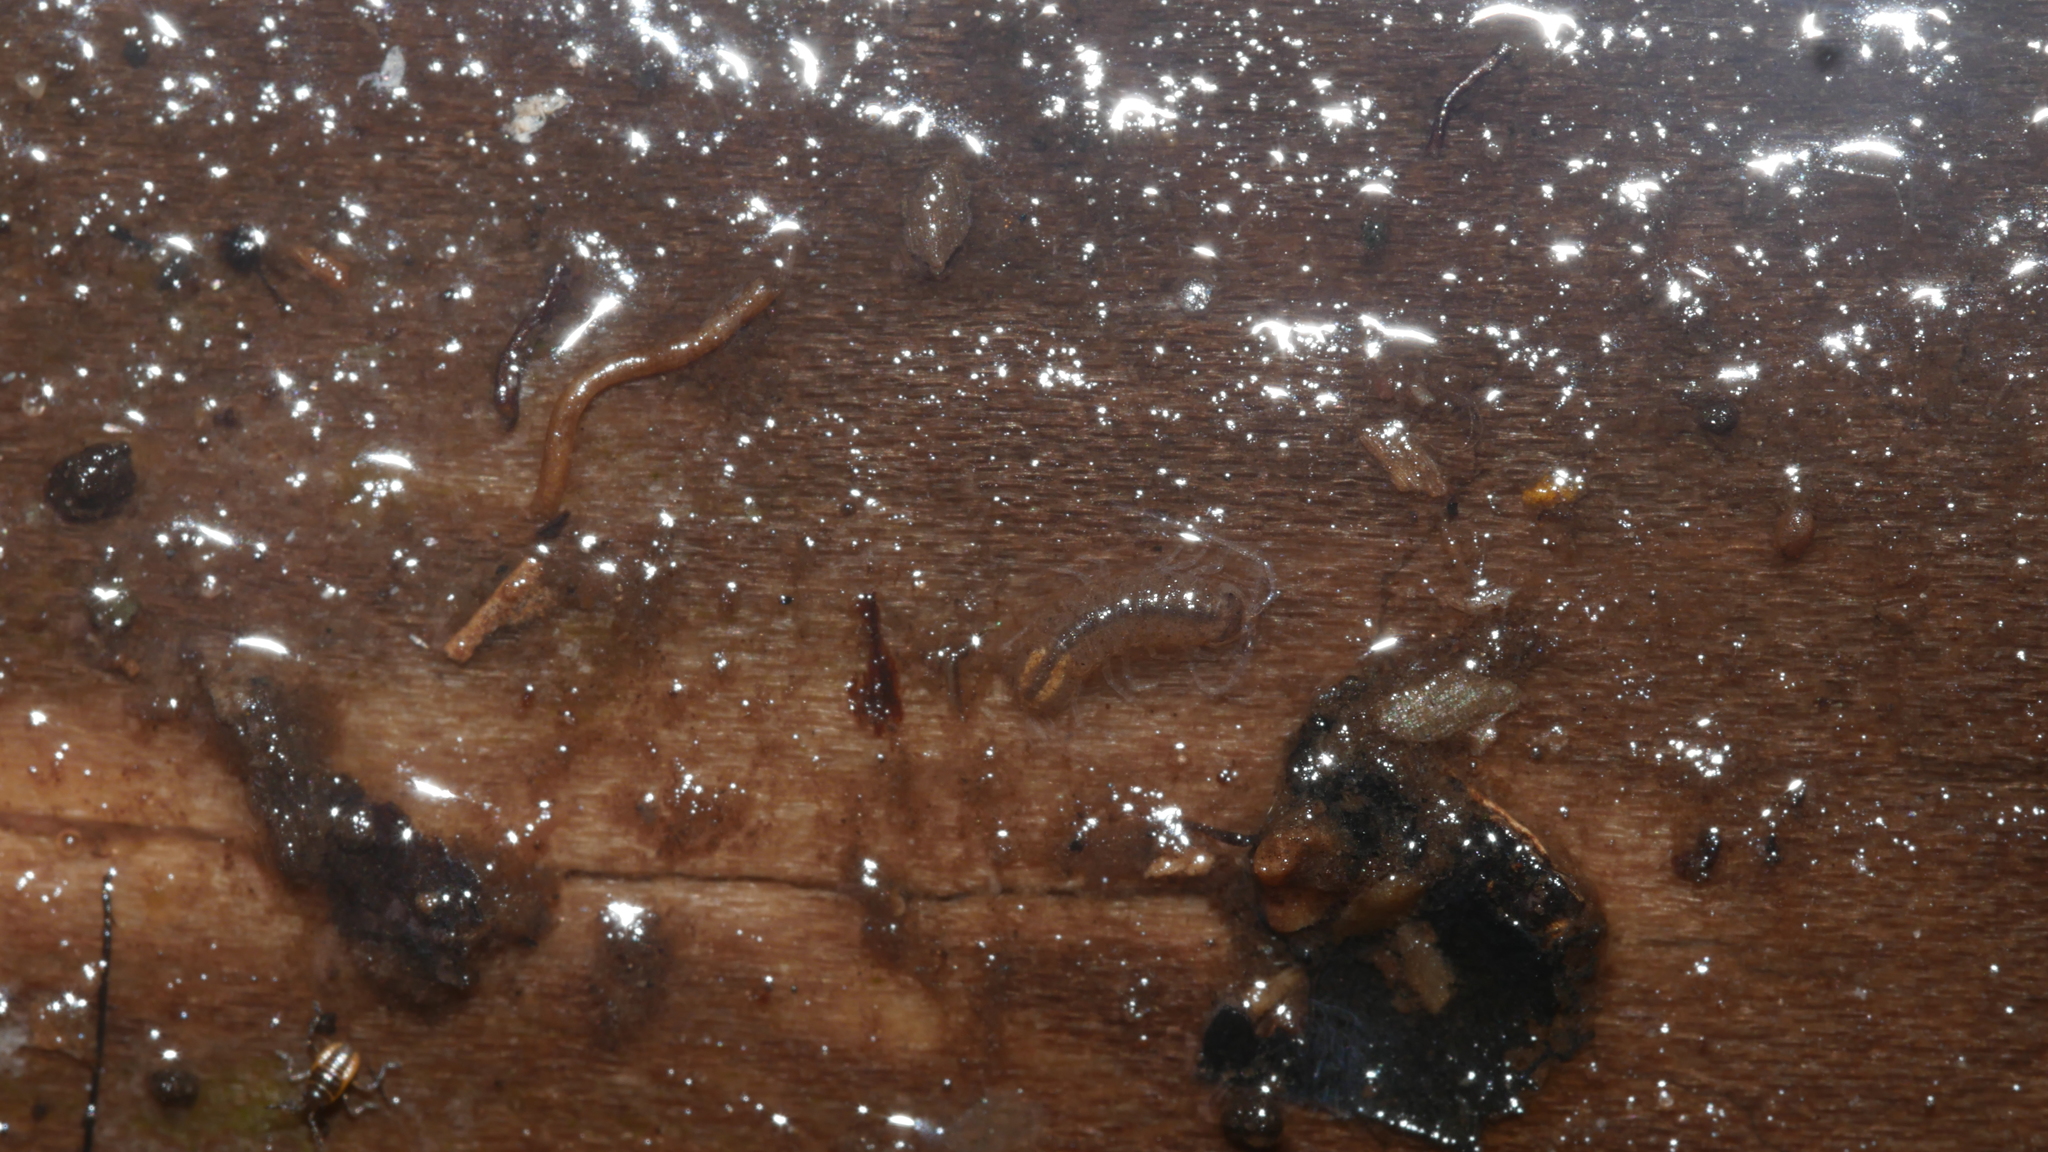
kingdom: Animalia
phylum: Arthropoda
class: Malacostraca
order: Isopoda
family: Asellidae
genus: Caecidotea
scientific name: Caecidotea nodula
